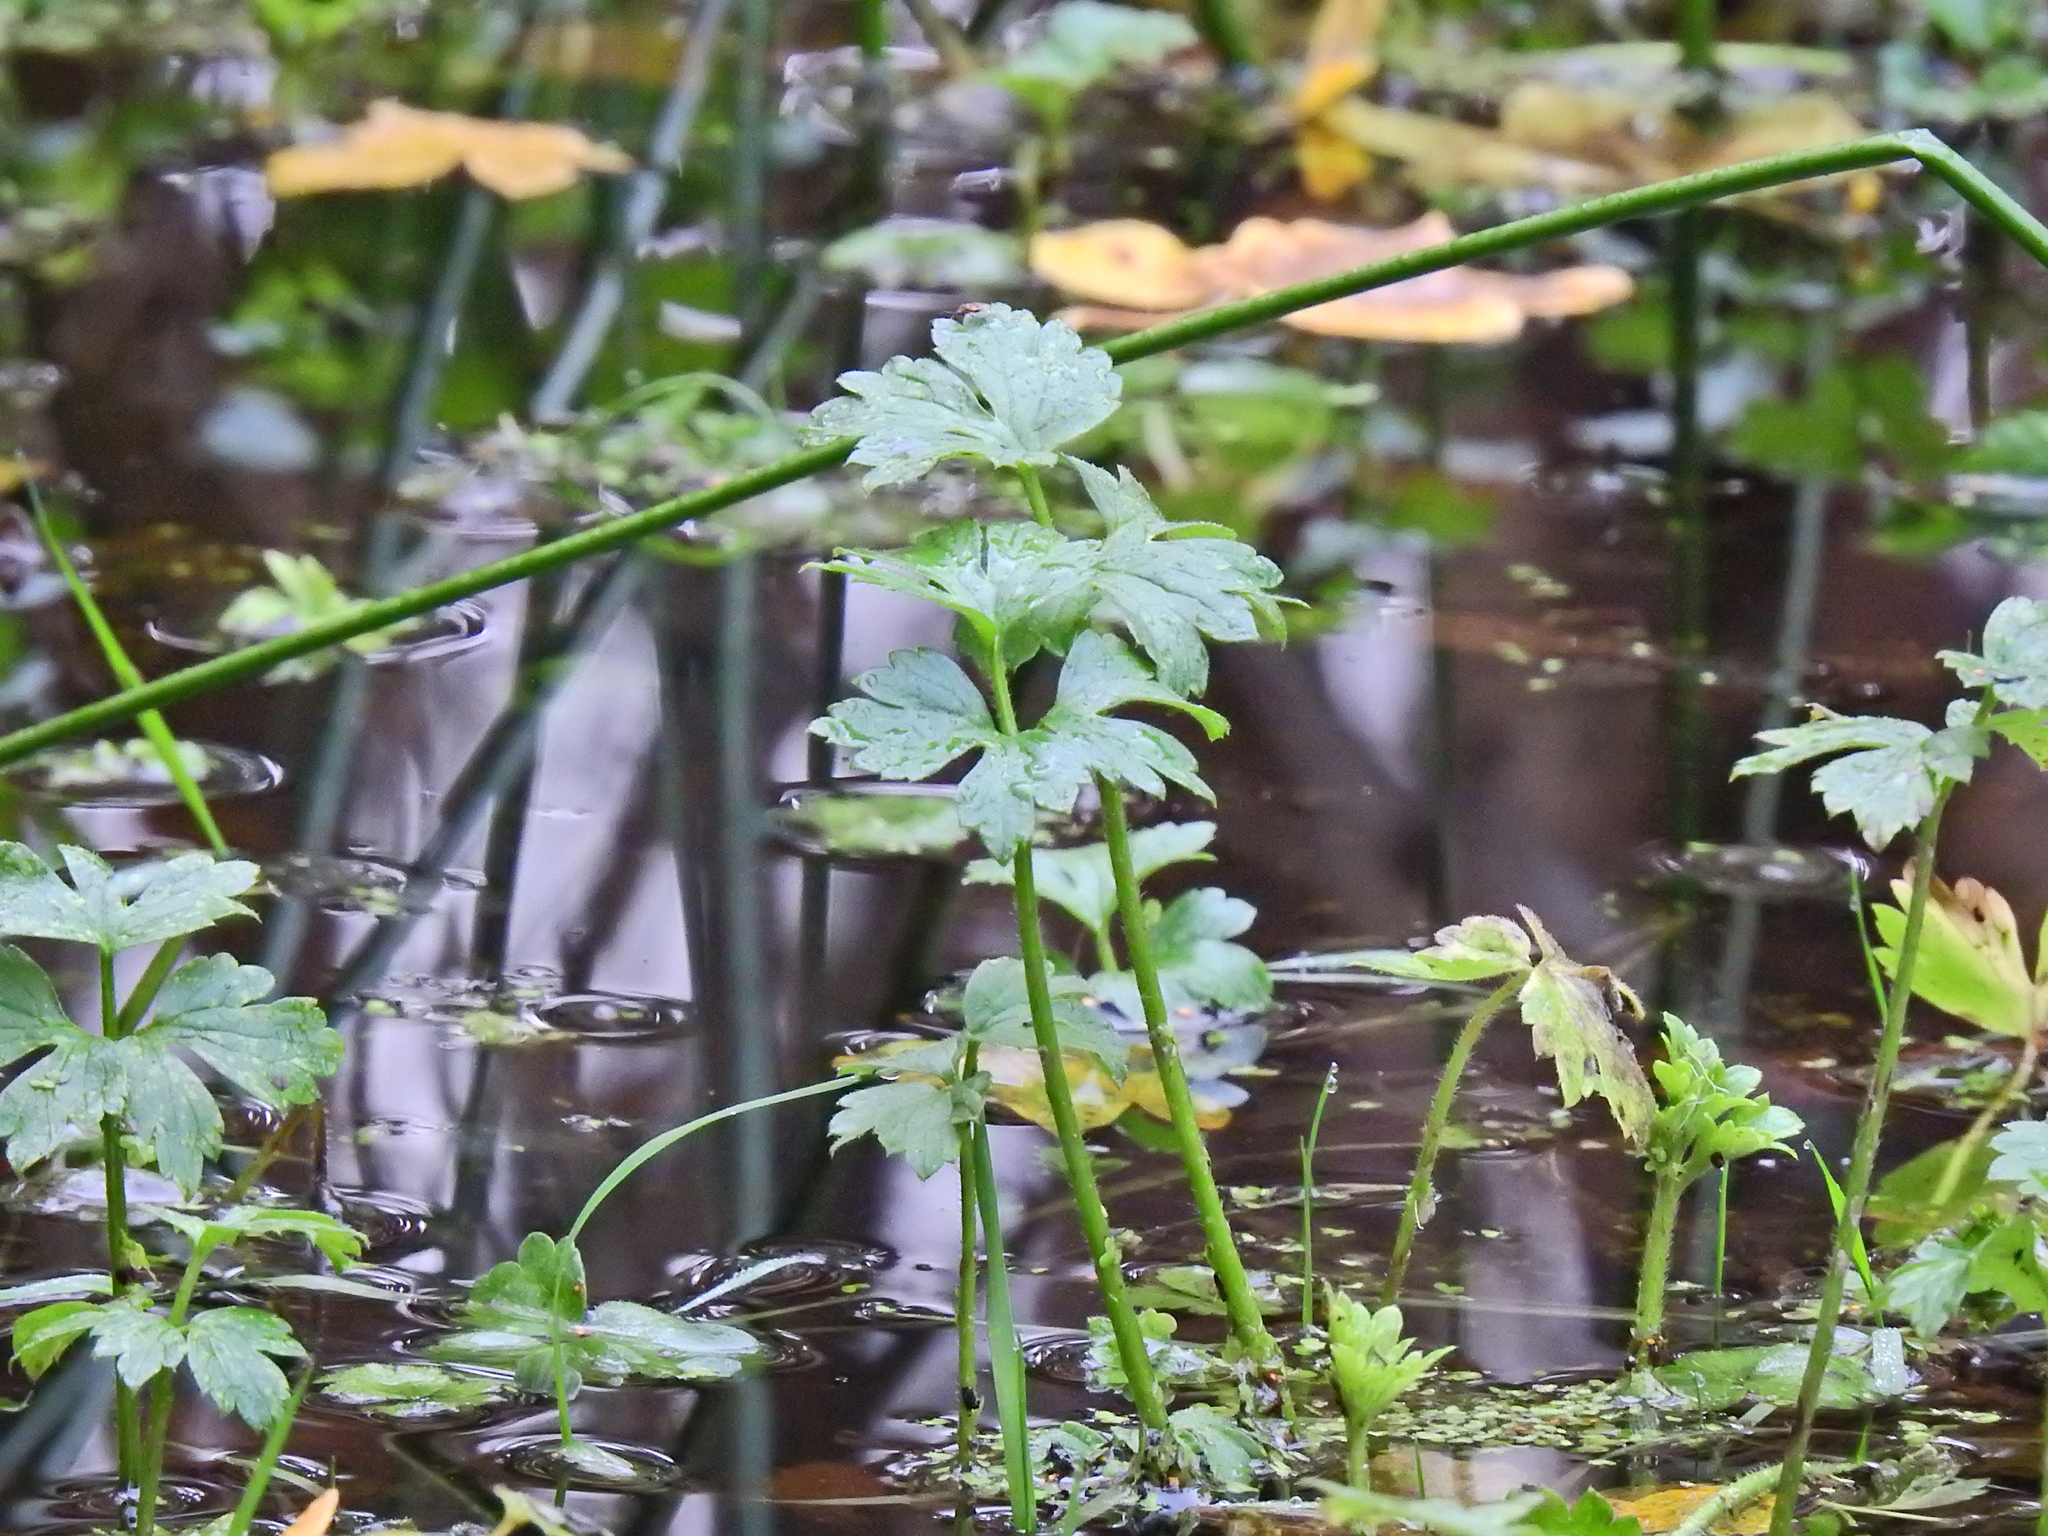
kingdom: Plantae
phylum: Tracheophyta
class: Magnoliopsida
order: Ranunculales
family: Ranunculaceae
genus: Ranunculus
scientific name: Ranunculus repens
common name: Creeping buttercup
